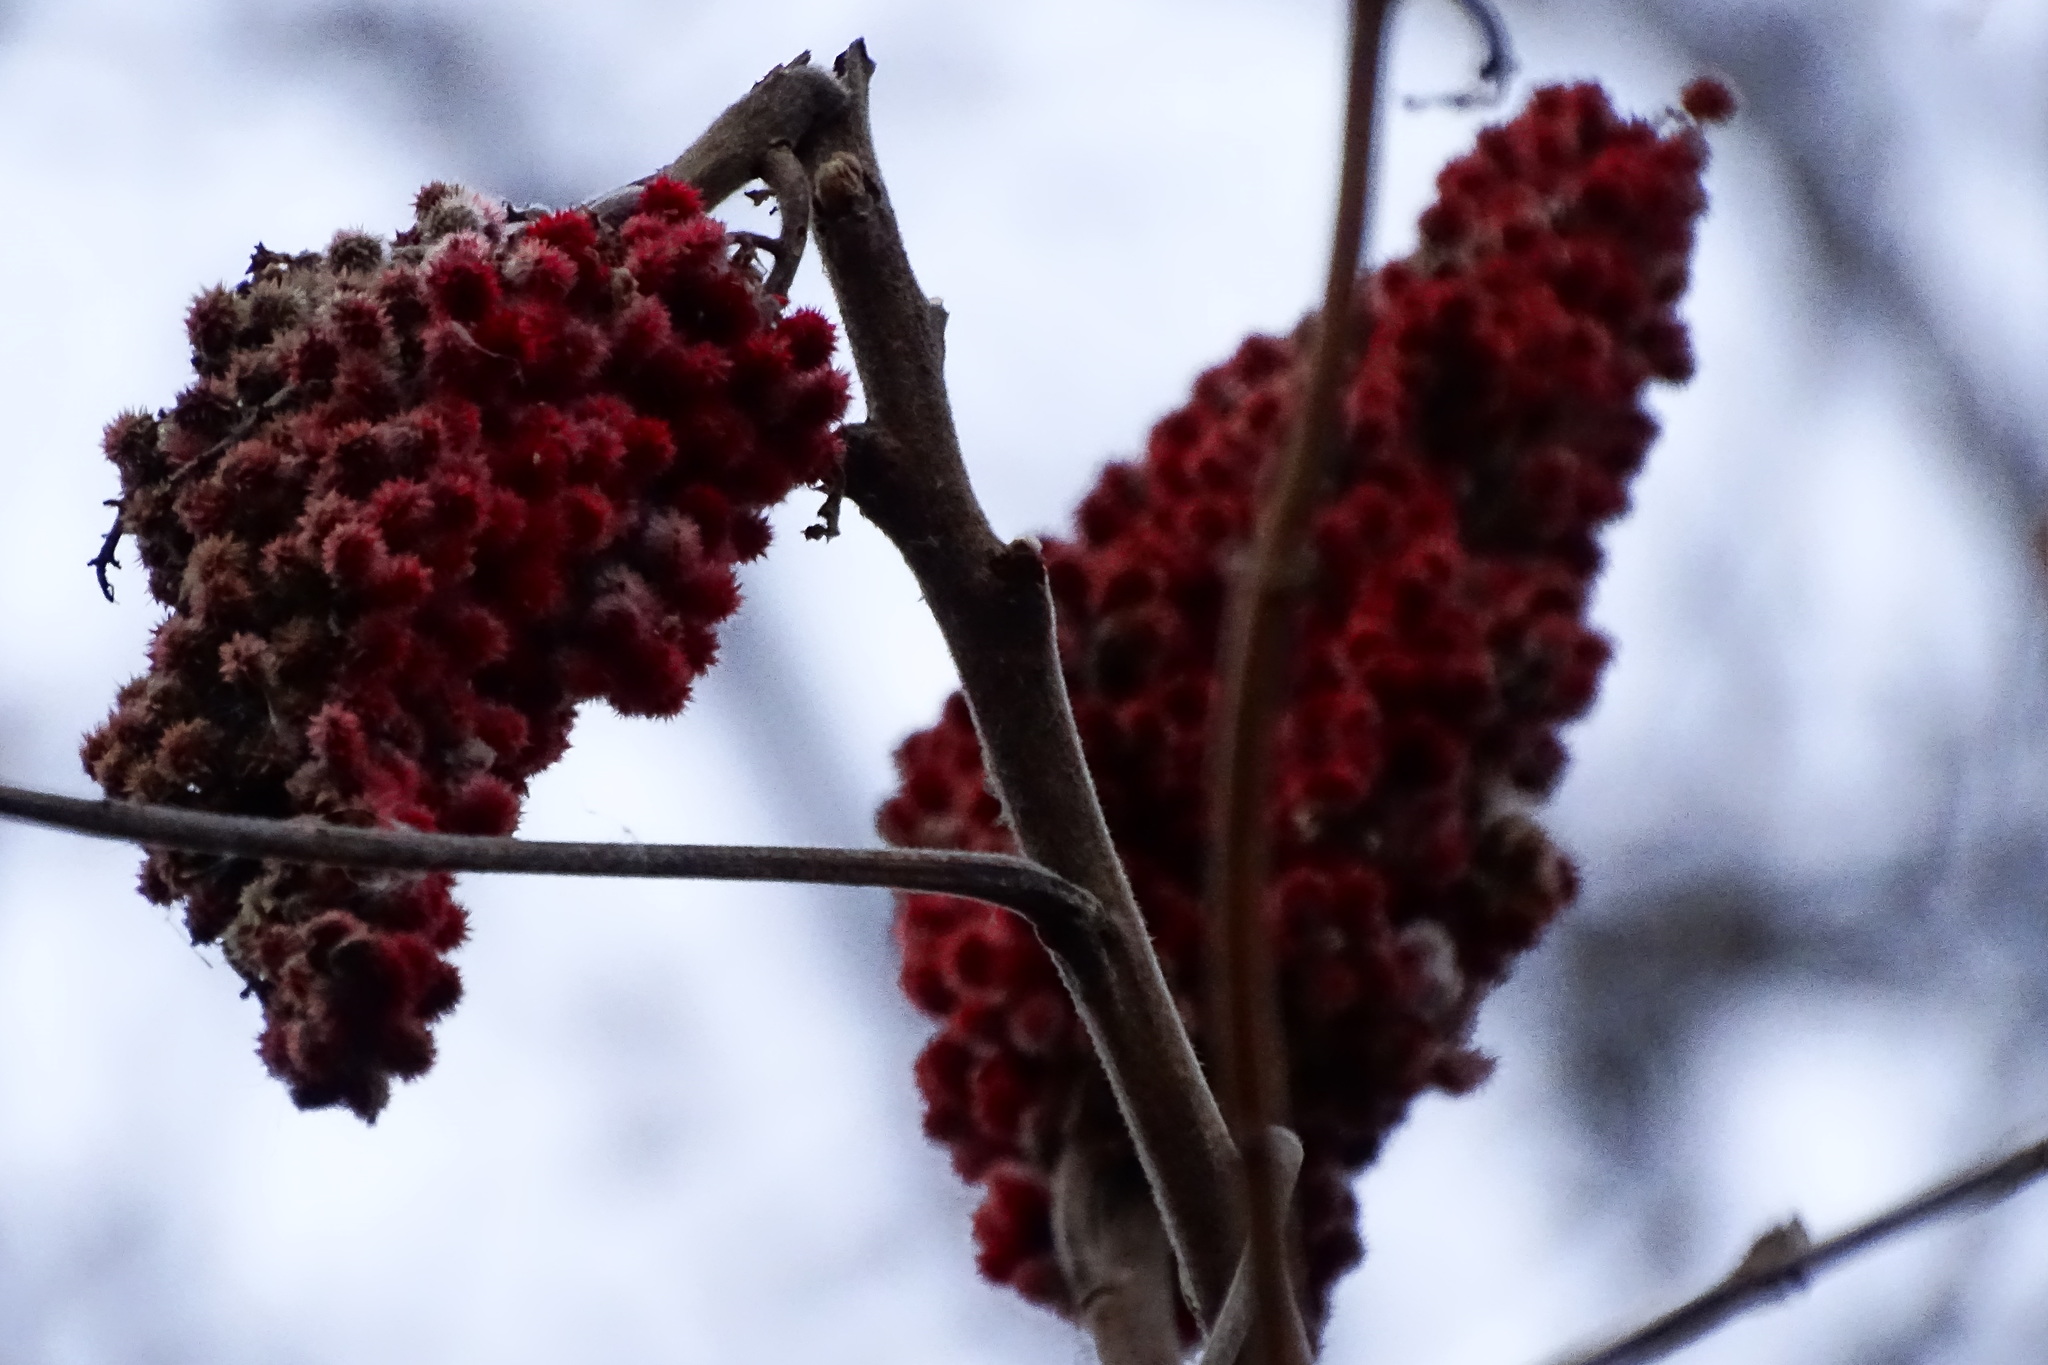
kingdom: Plantae
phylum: Tracheophyta
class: Magnoliopsida
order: Sapindales
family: Anacardiaceae
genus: Rhus
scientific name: Rhus typhina
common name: Staghorn sumac
